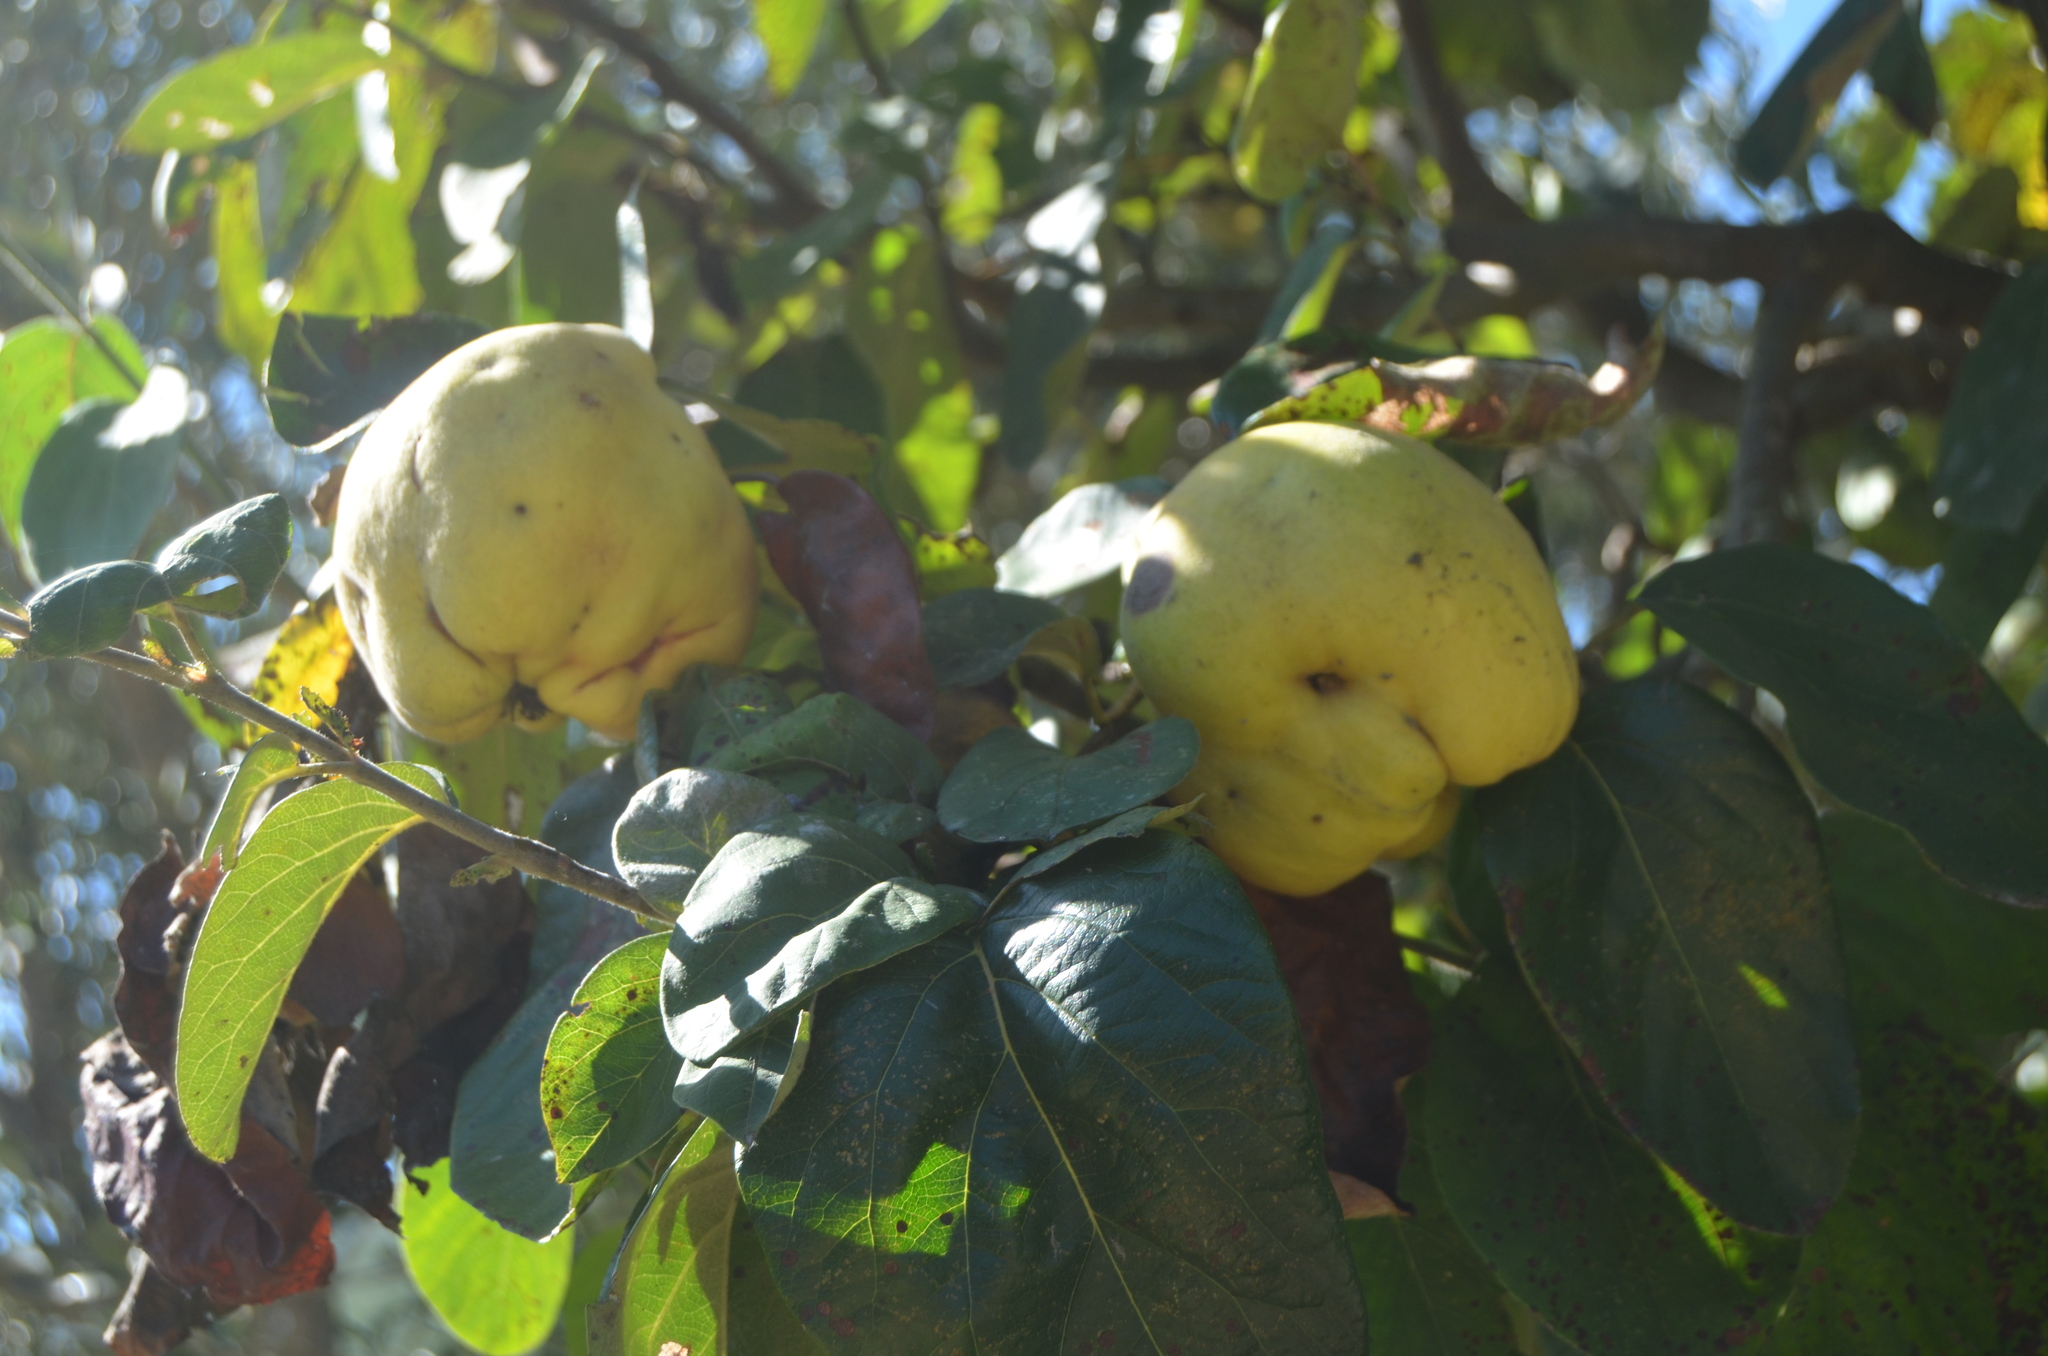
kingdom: Plantae
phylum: Tracheophyta
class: Magnoliopsida
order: Rosales
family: Rosaceae
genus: Cydonia
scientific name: Cydonia oblonga
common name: Quince
